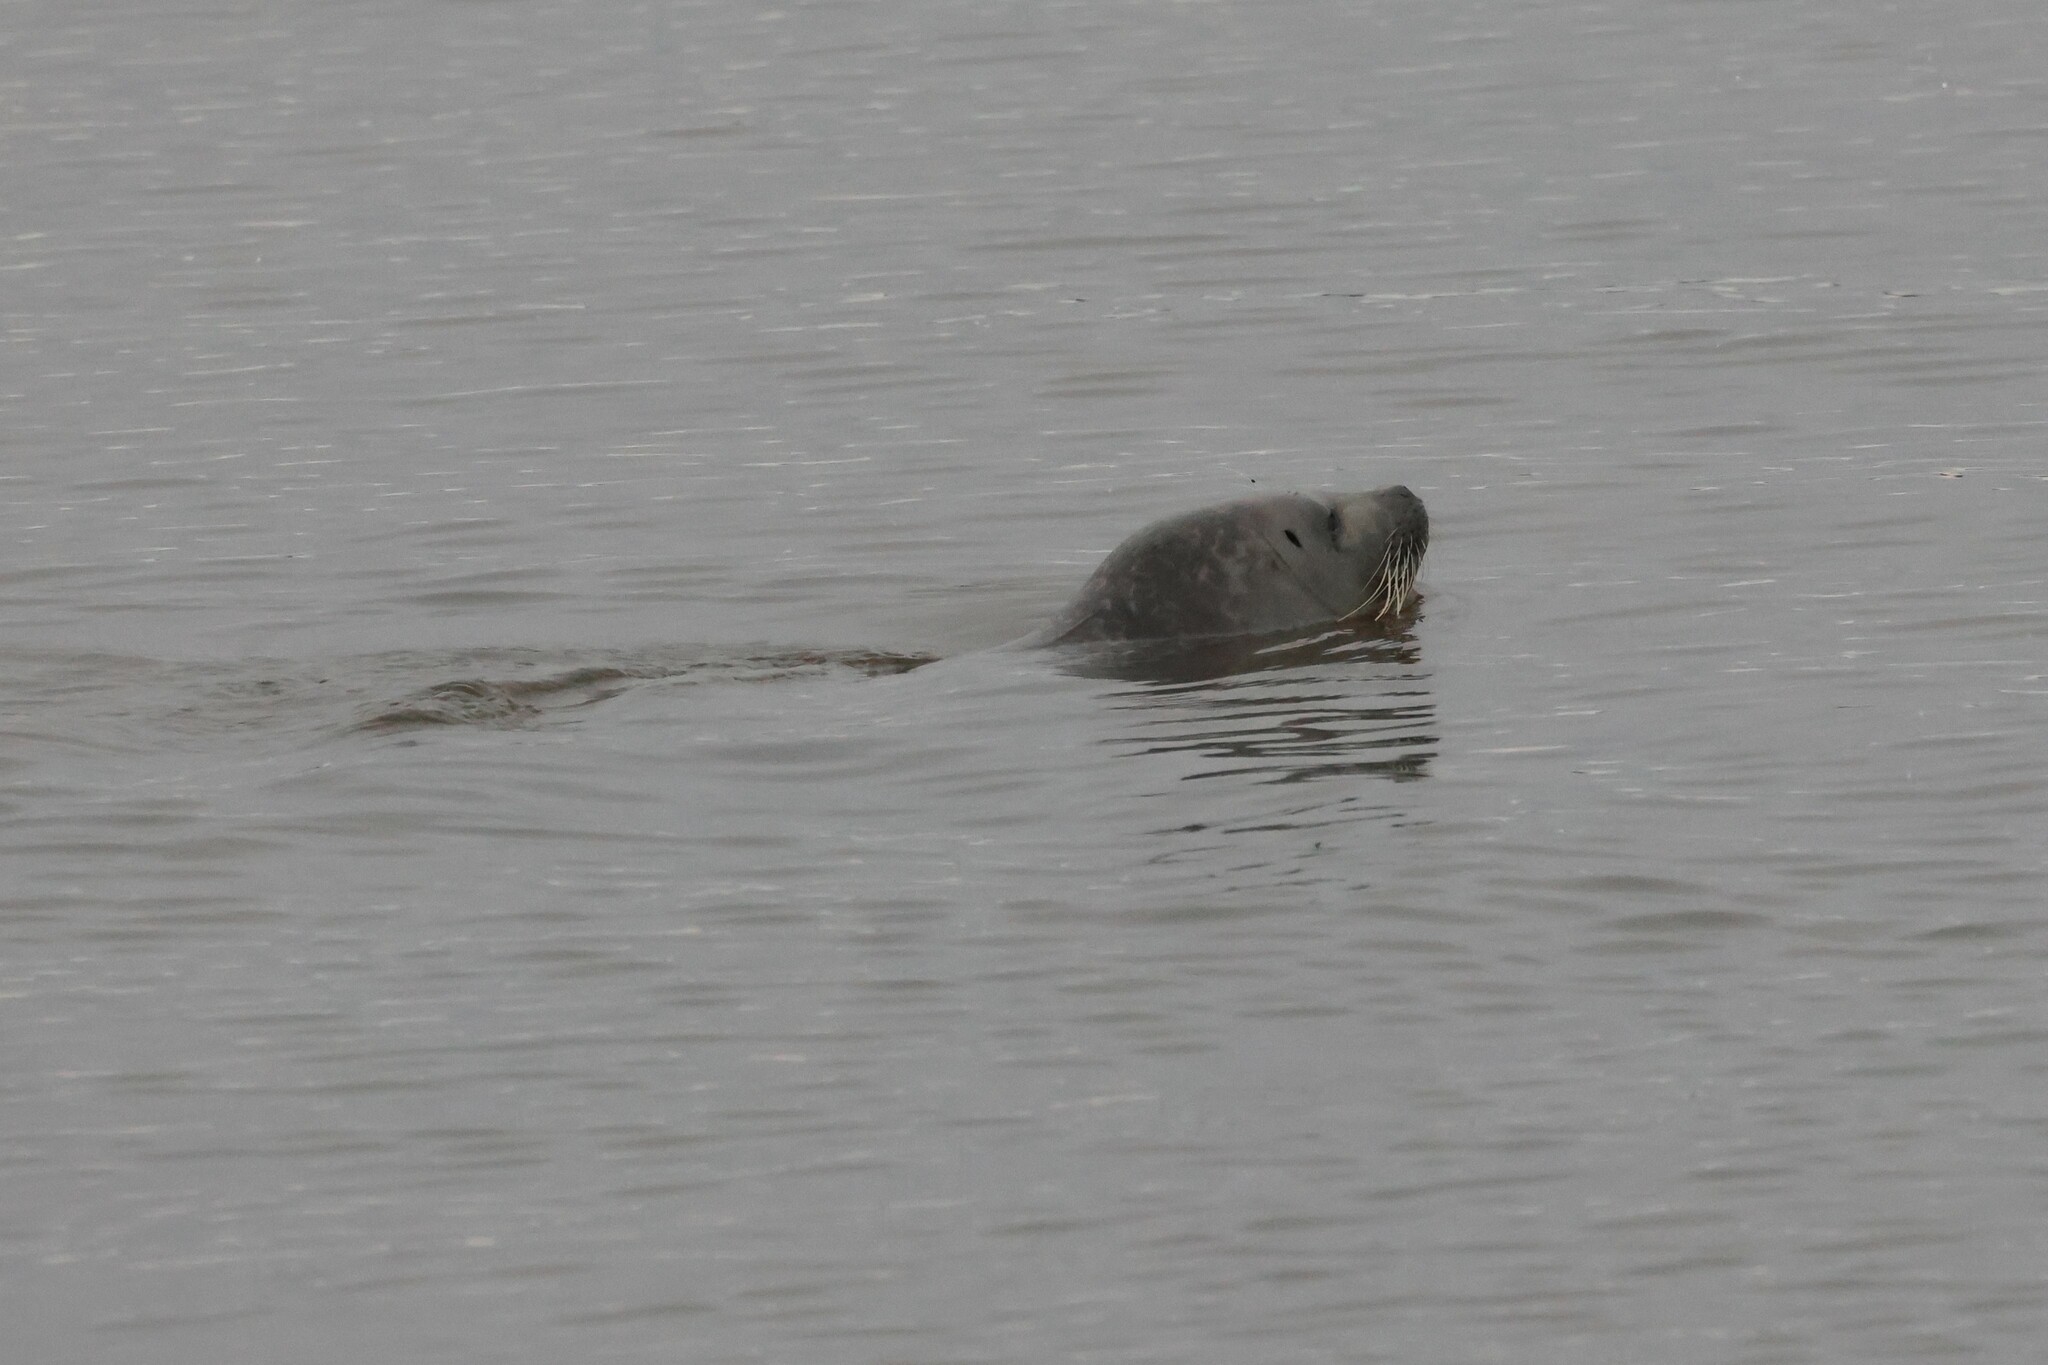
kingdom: Animalia
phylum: Chordata
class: Mammalia
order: Carnivora
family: Phocidae
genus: Phoca
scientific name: Phoca vitulina
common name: Harbor seal
